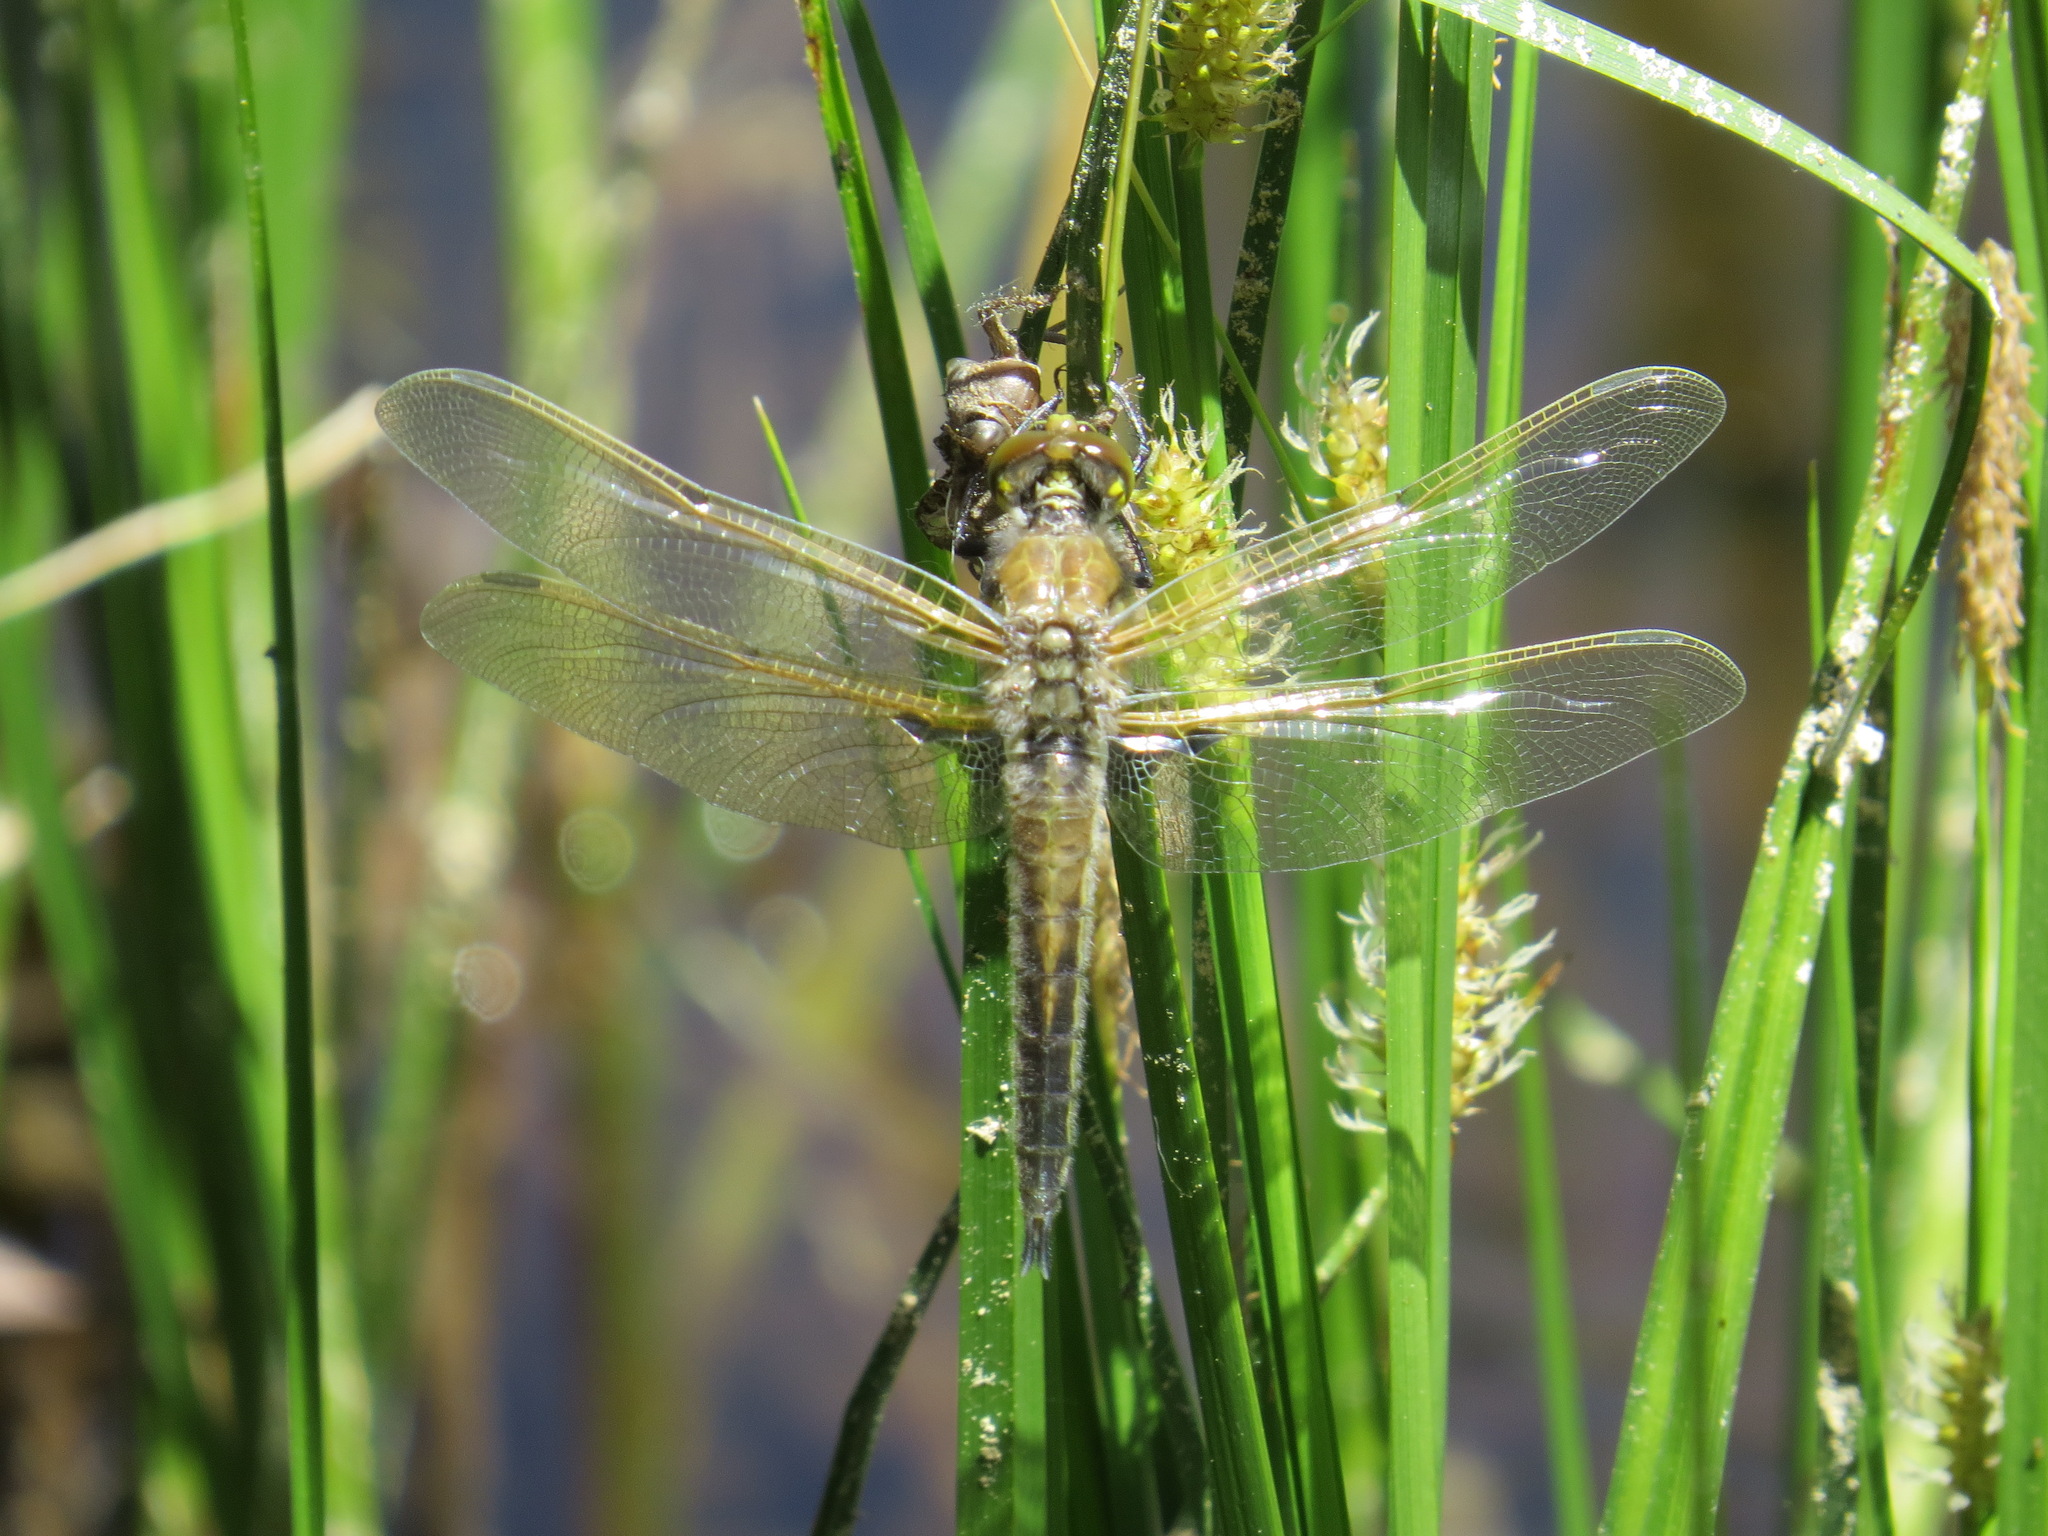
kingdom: Animalia
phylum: Arthropoda
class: Insecta
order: Odonata
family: Libellulidae
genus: Libellula
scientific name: Libellula quadrimaculata
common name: Four-spotted chaser
